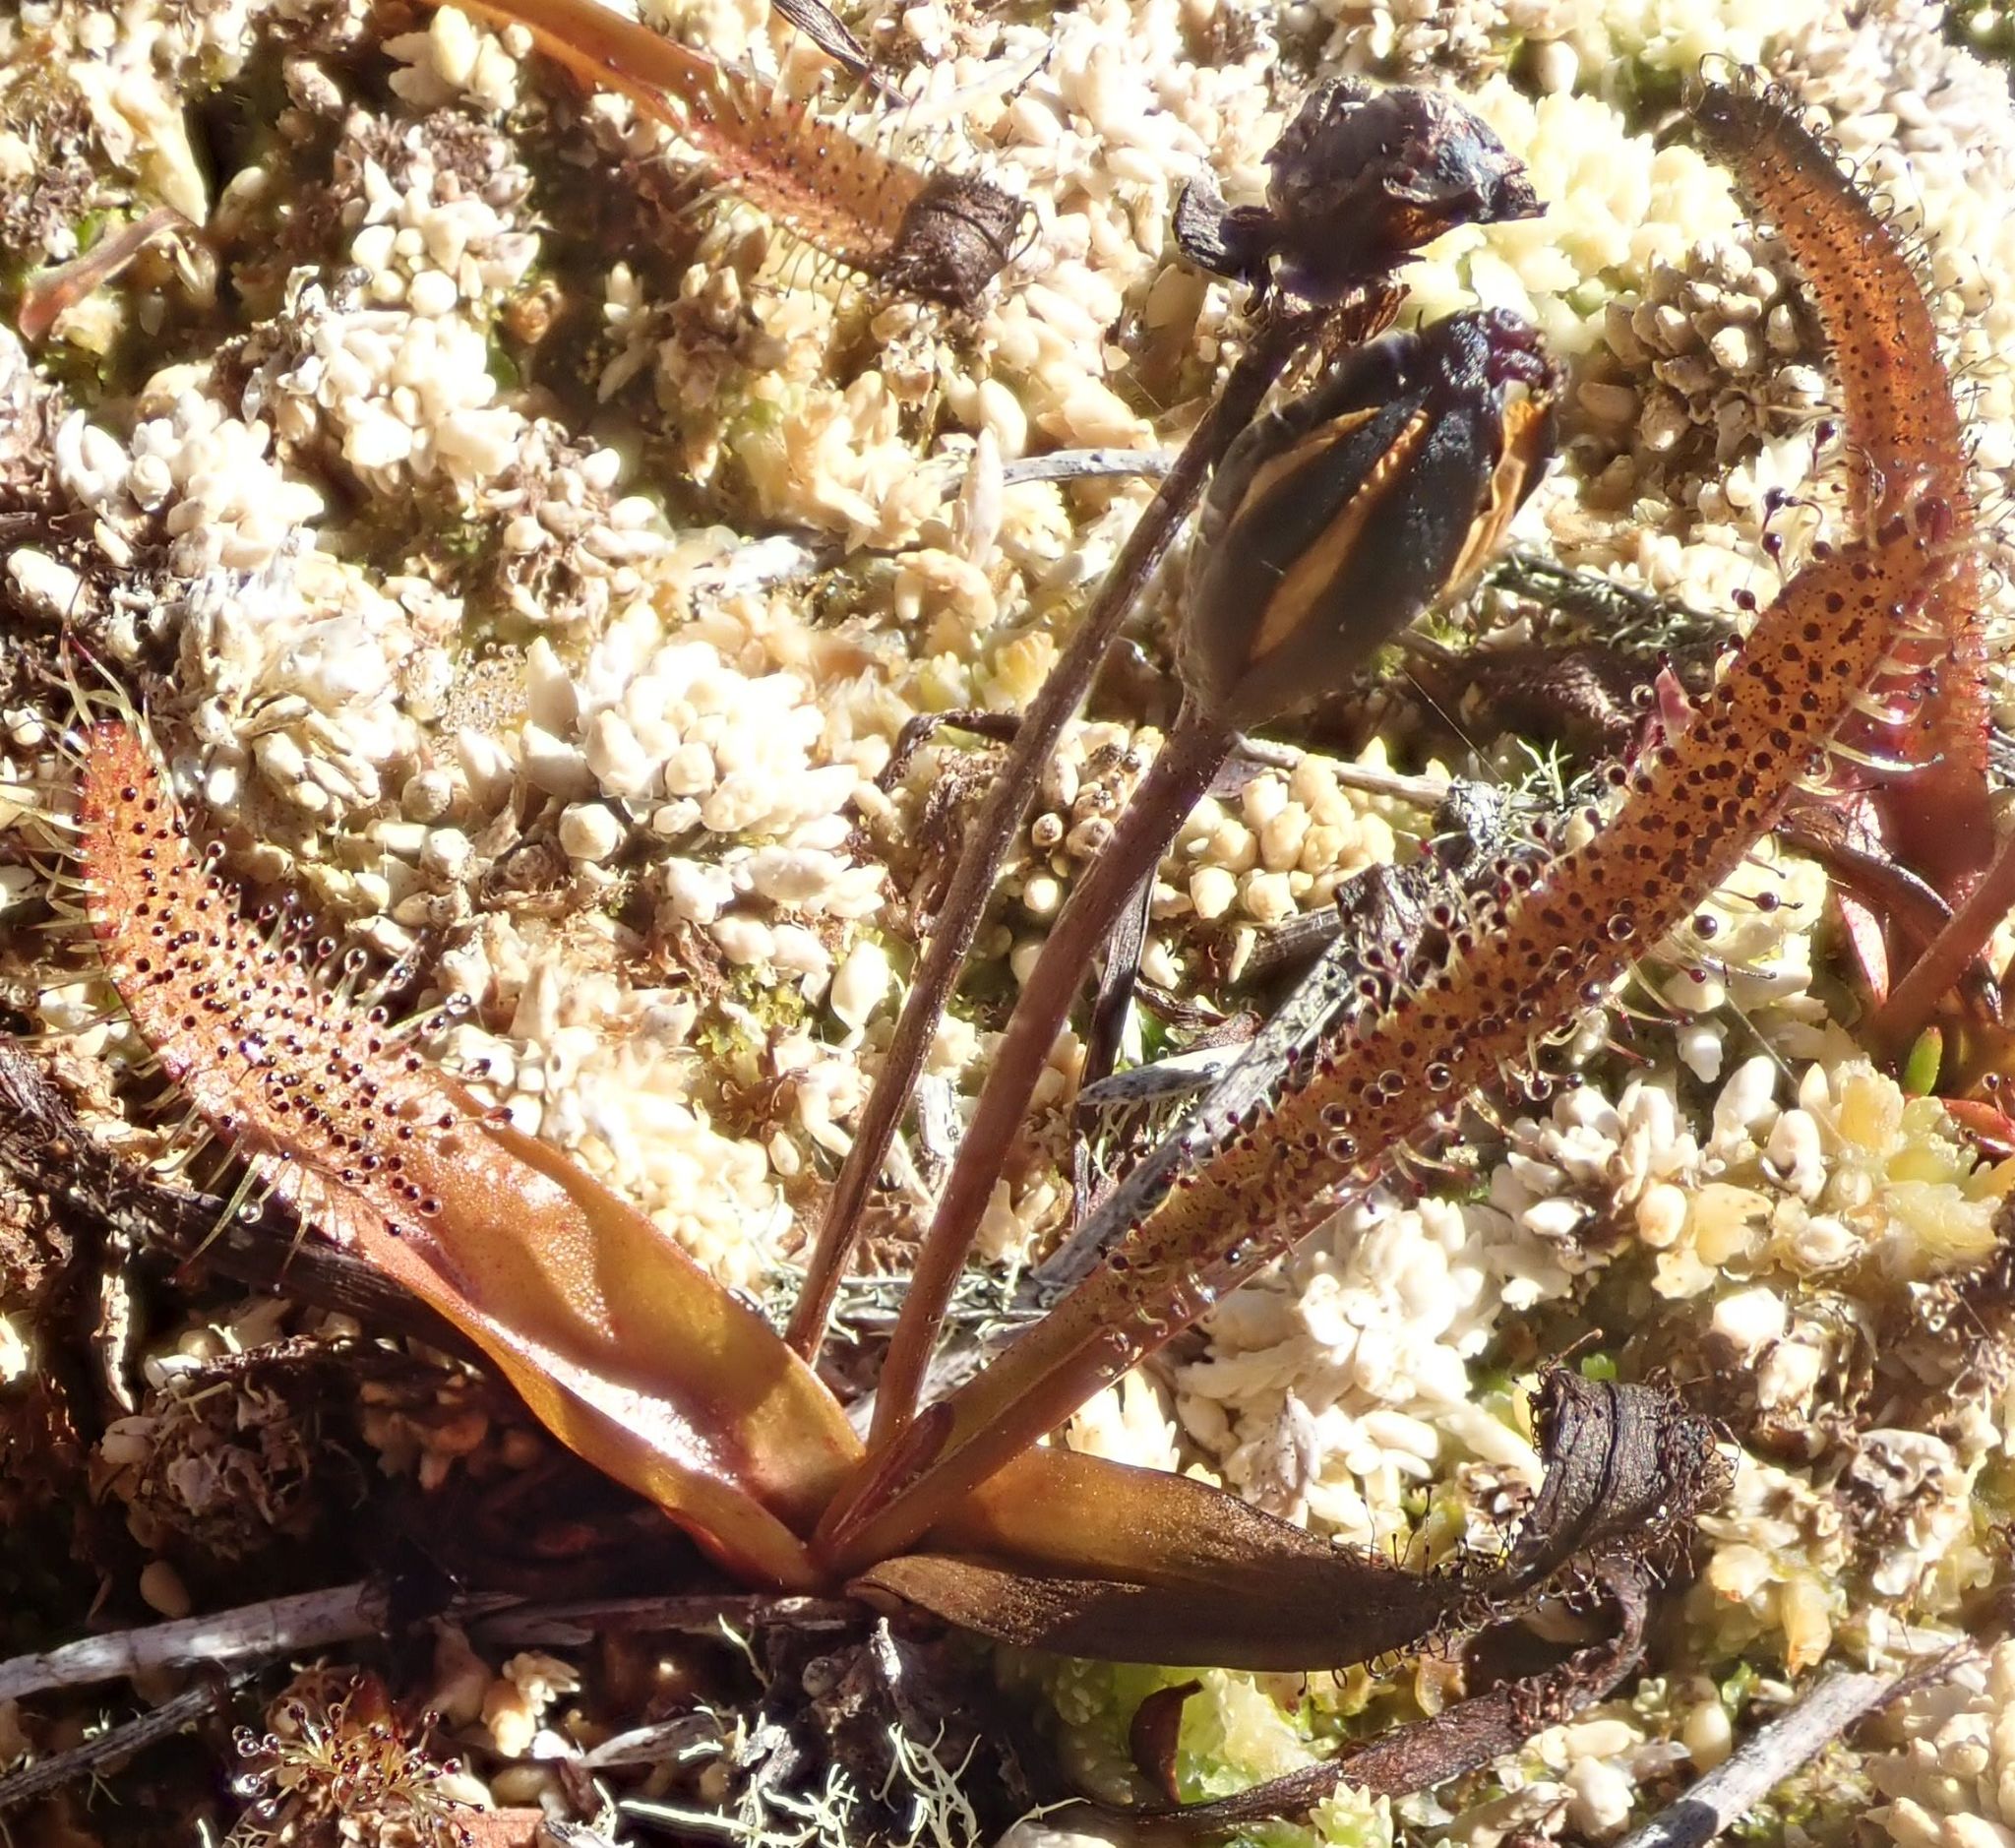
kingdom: Plantae
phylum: Tracheophyta
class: Magnoliopsida
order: Caryophyllales
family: Droseraceae
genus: Drosera
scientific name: Drosera arcturi
